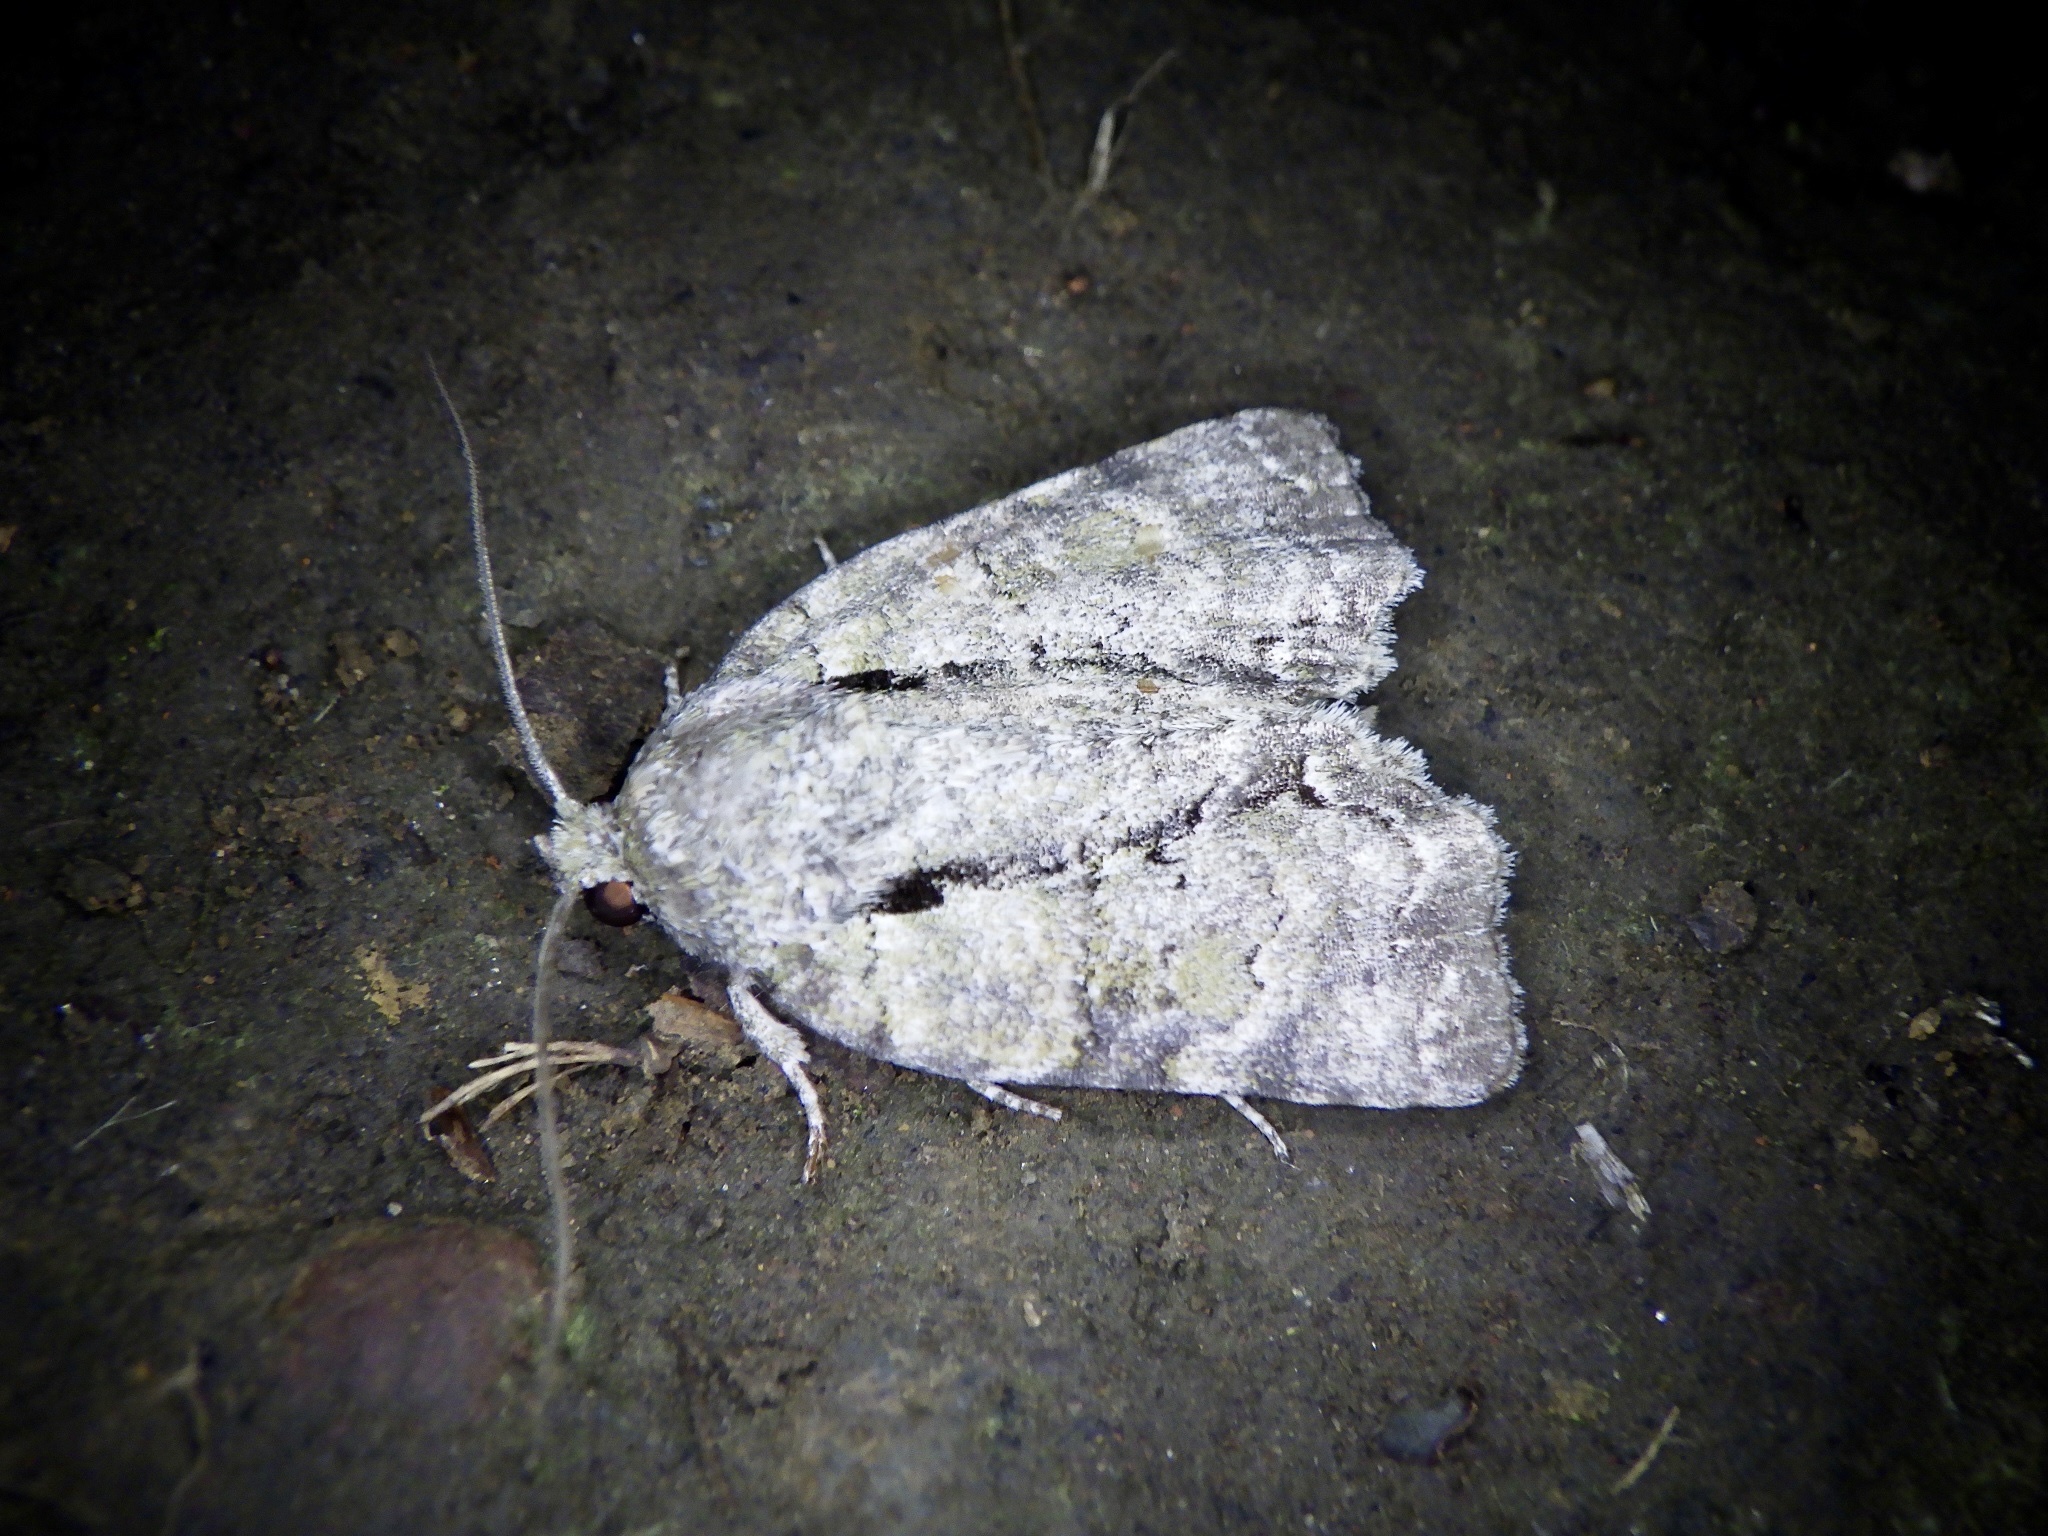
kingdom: Animalia
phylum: Arthropoda
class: Insecta
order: Lepidoptera
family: Nolidae
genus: Blenina
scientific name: Blenina senex
